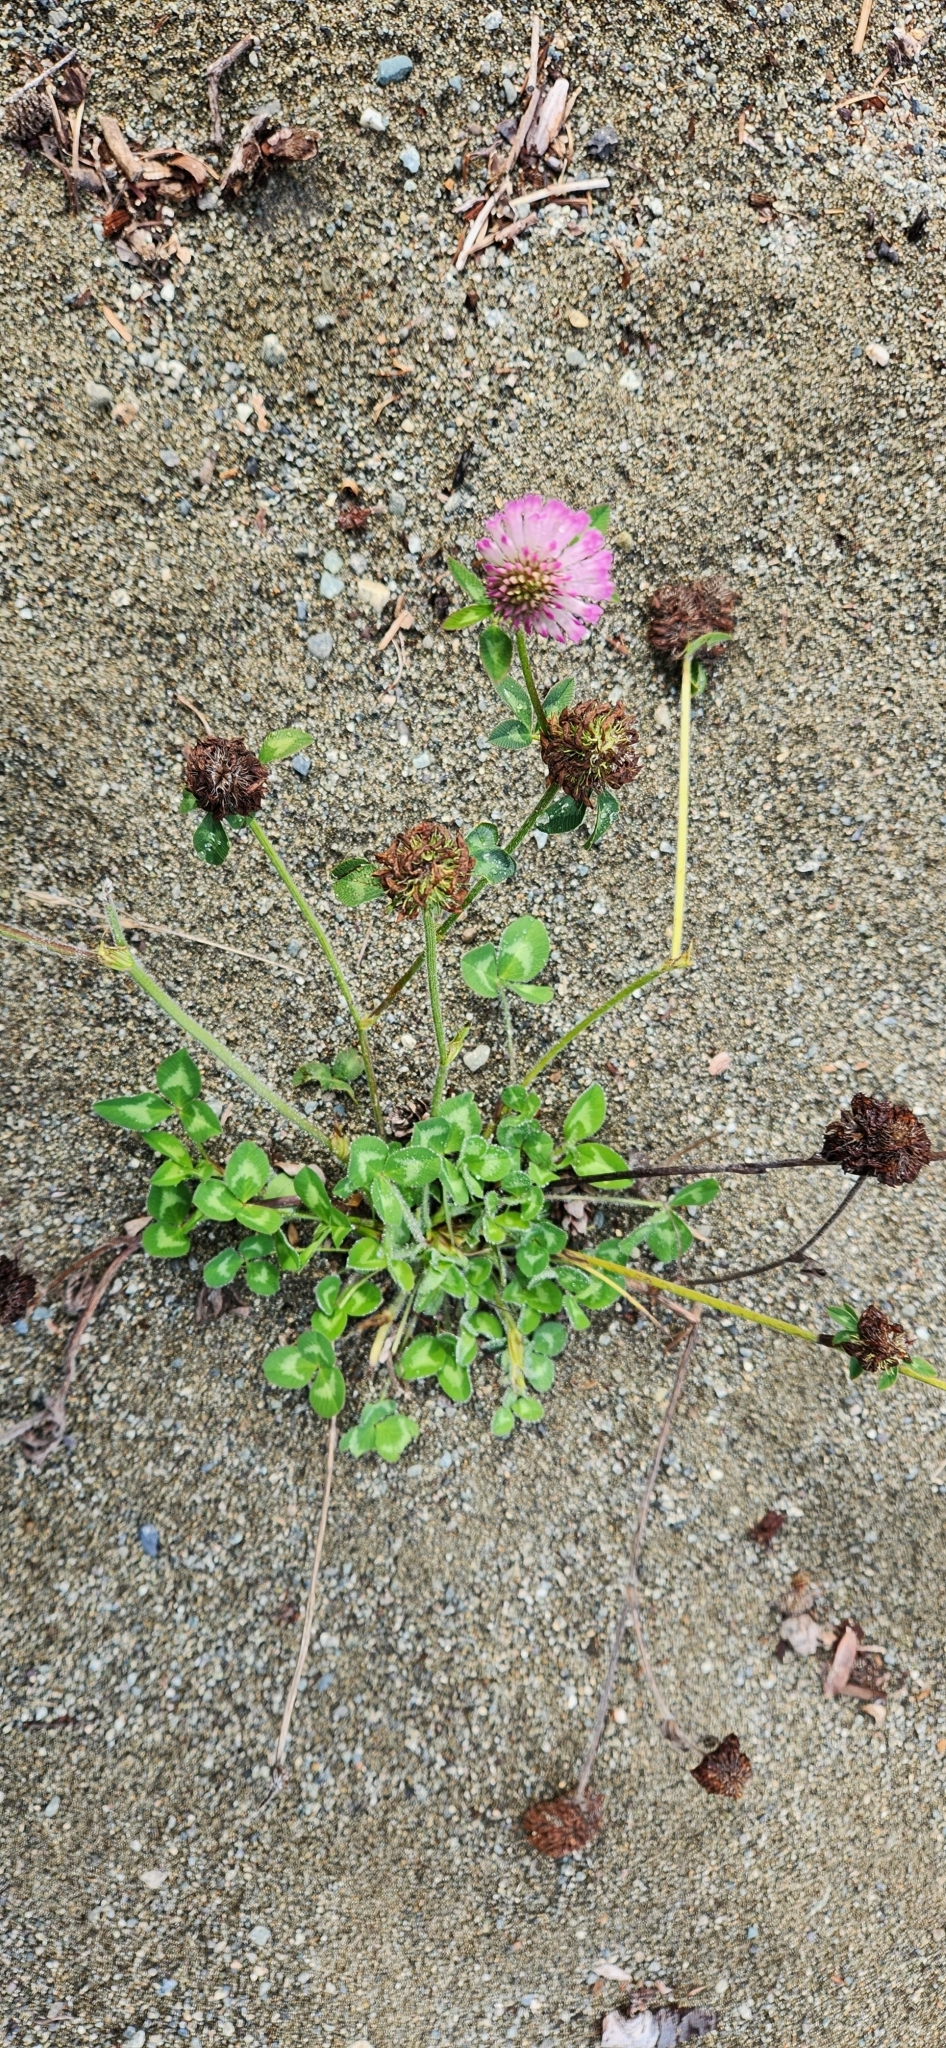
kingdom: Plantae
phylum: Tracheophyta
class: Magnoliopsida
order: Fabales
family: Fabaceae
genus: Trifolium
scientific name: Trifolium pratense
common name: Red clover
